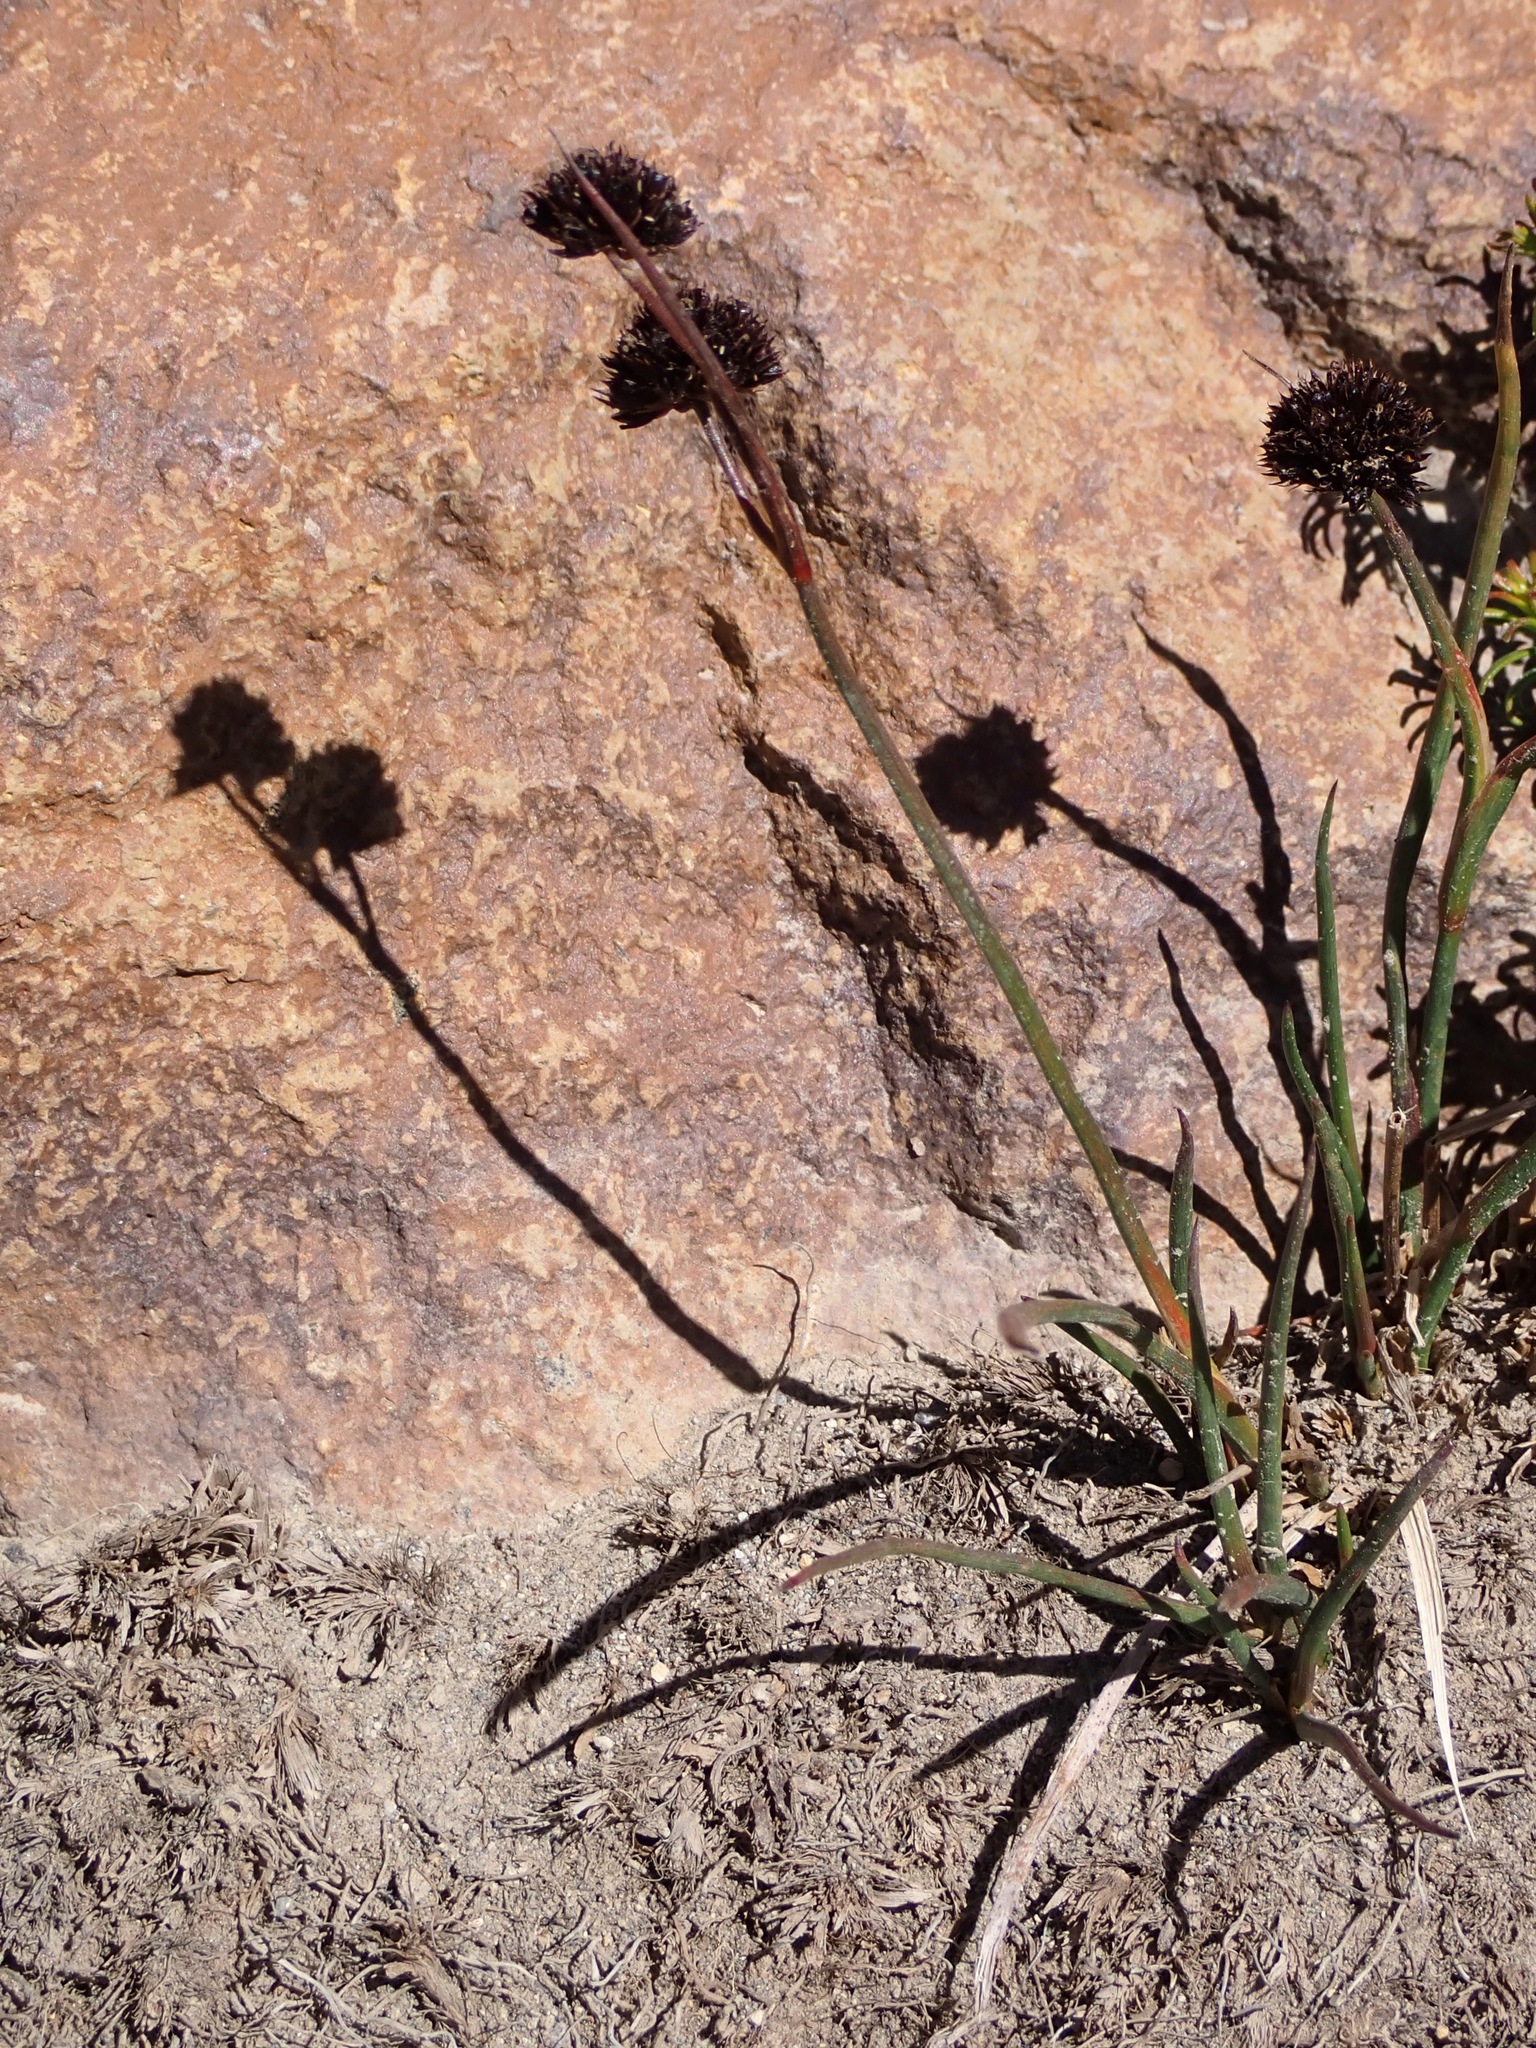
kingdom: Plantae
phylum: Tracheophyta
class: Liliopsida
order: Poales
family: Juncaceae
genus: Juncus
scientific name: Juncus mertensianus
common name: Merten's rush
